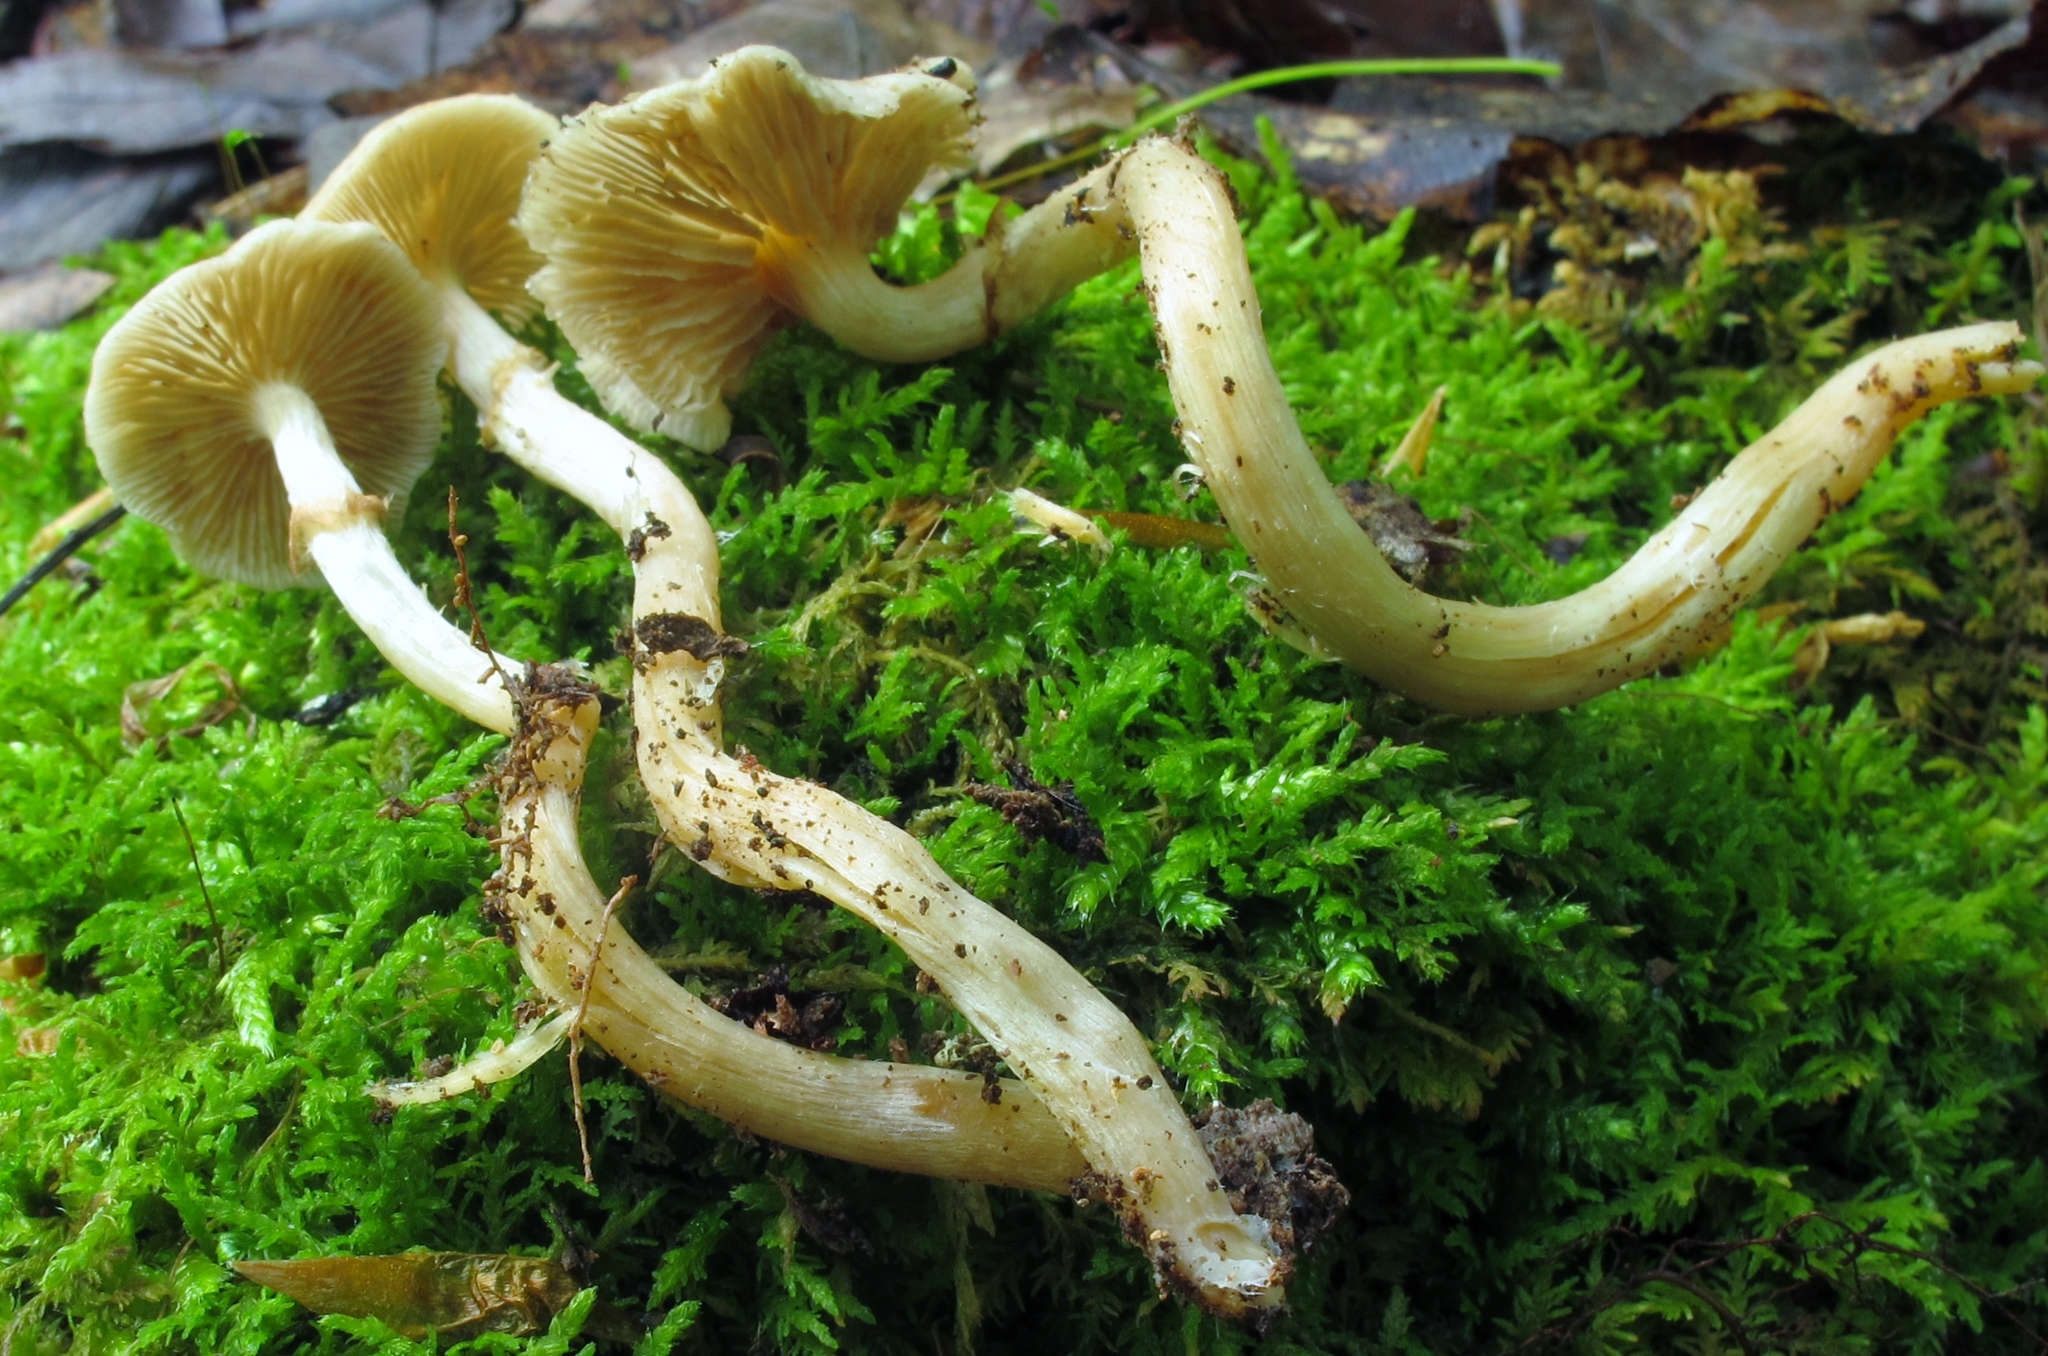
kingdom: Fungi
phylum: Basidiomycota
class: Agaricomycetes
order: Agaricales
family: Strophariaceae
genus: Kuehneromyces
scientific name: Kuehneromyces marginellus
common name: Sheathed woodtuft
